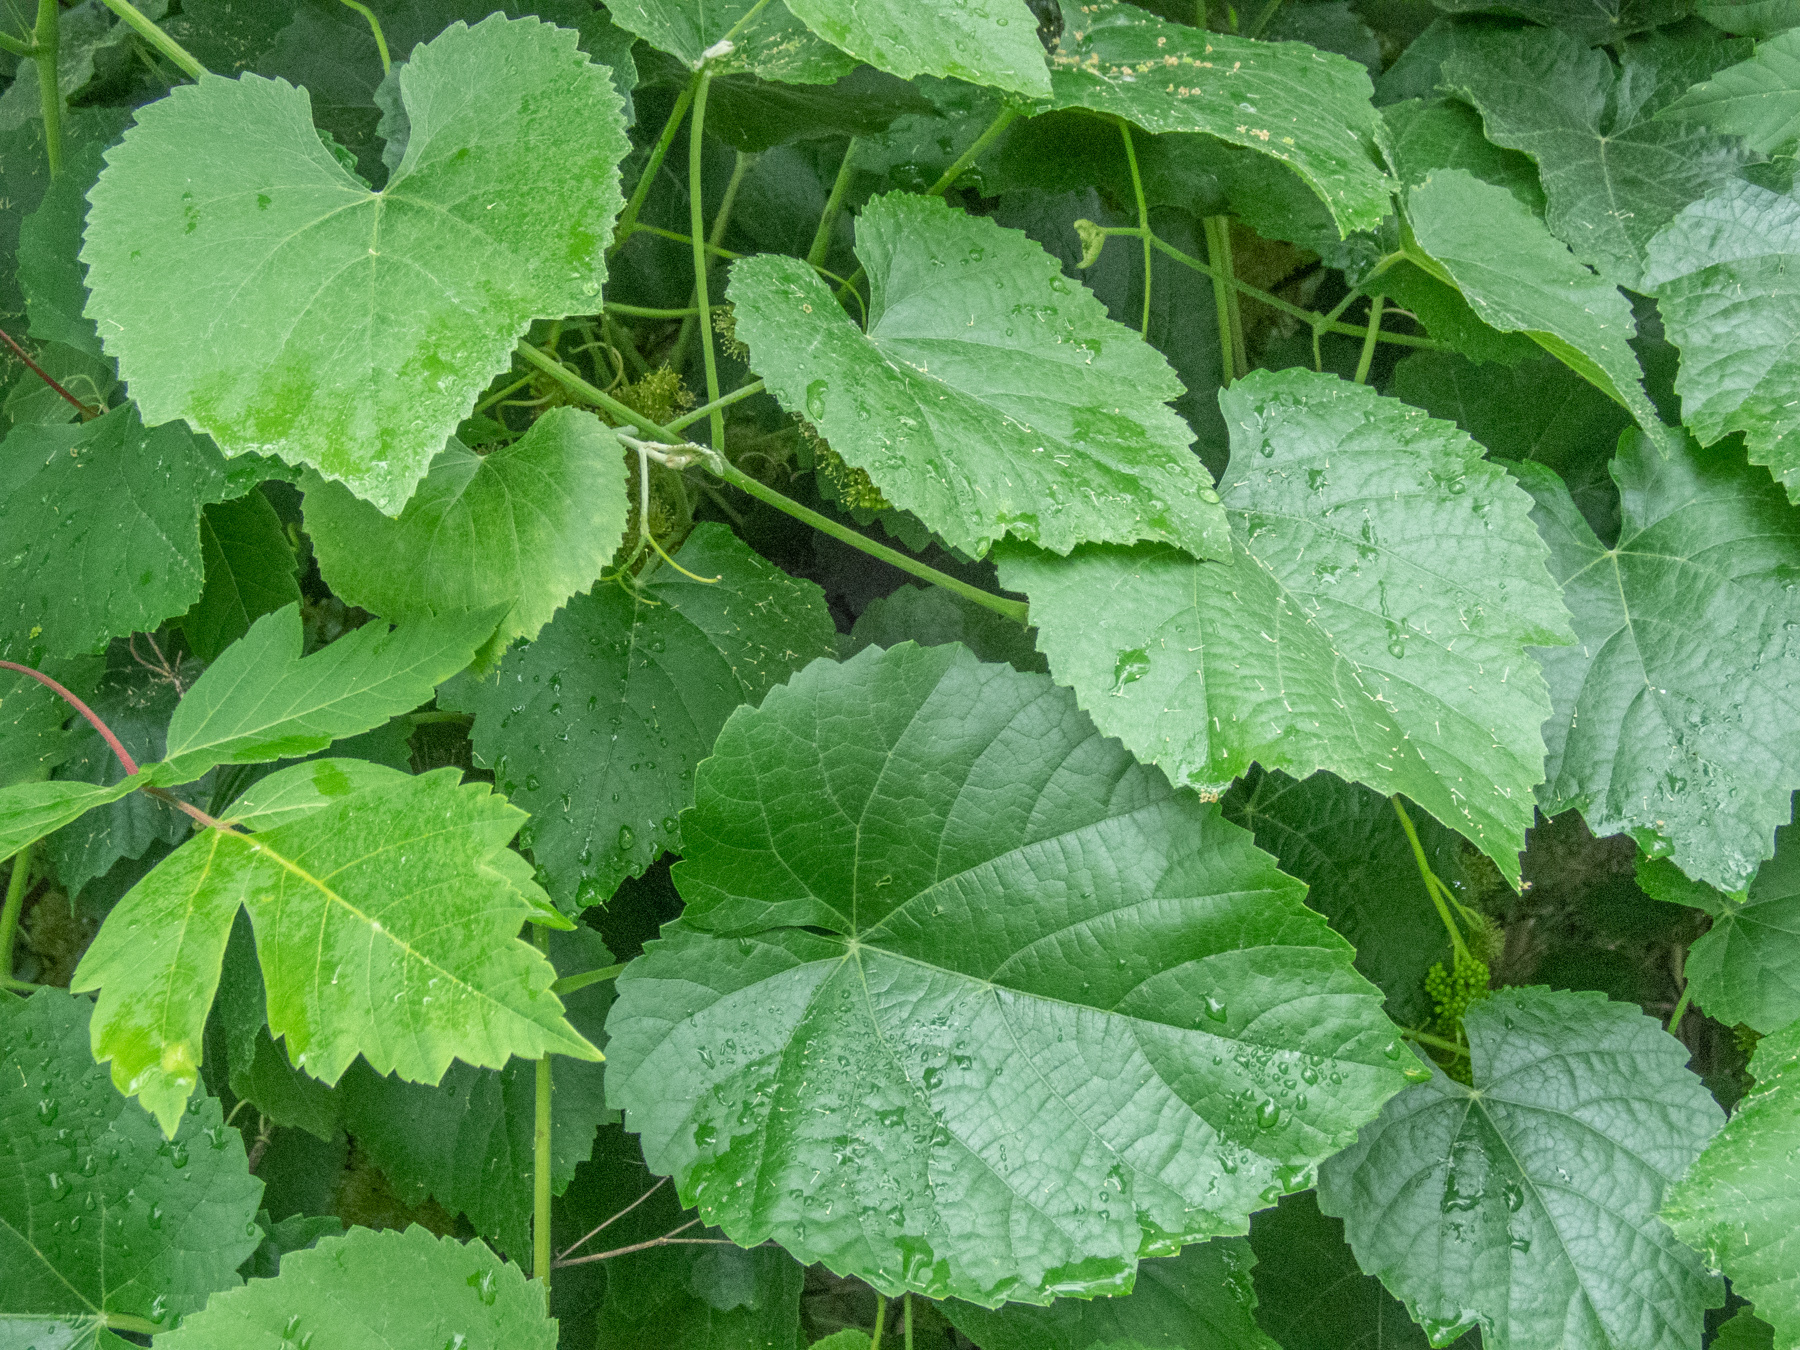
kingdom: Plantae
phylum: Tracheophyta
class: Magnoliopsida
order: Vitales
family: Vitaceae
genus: Vitis
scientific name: Vitis californica
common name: California wild grape
